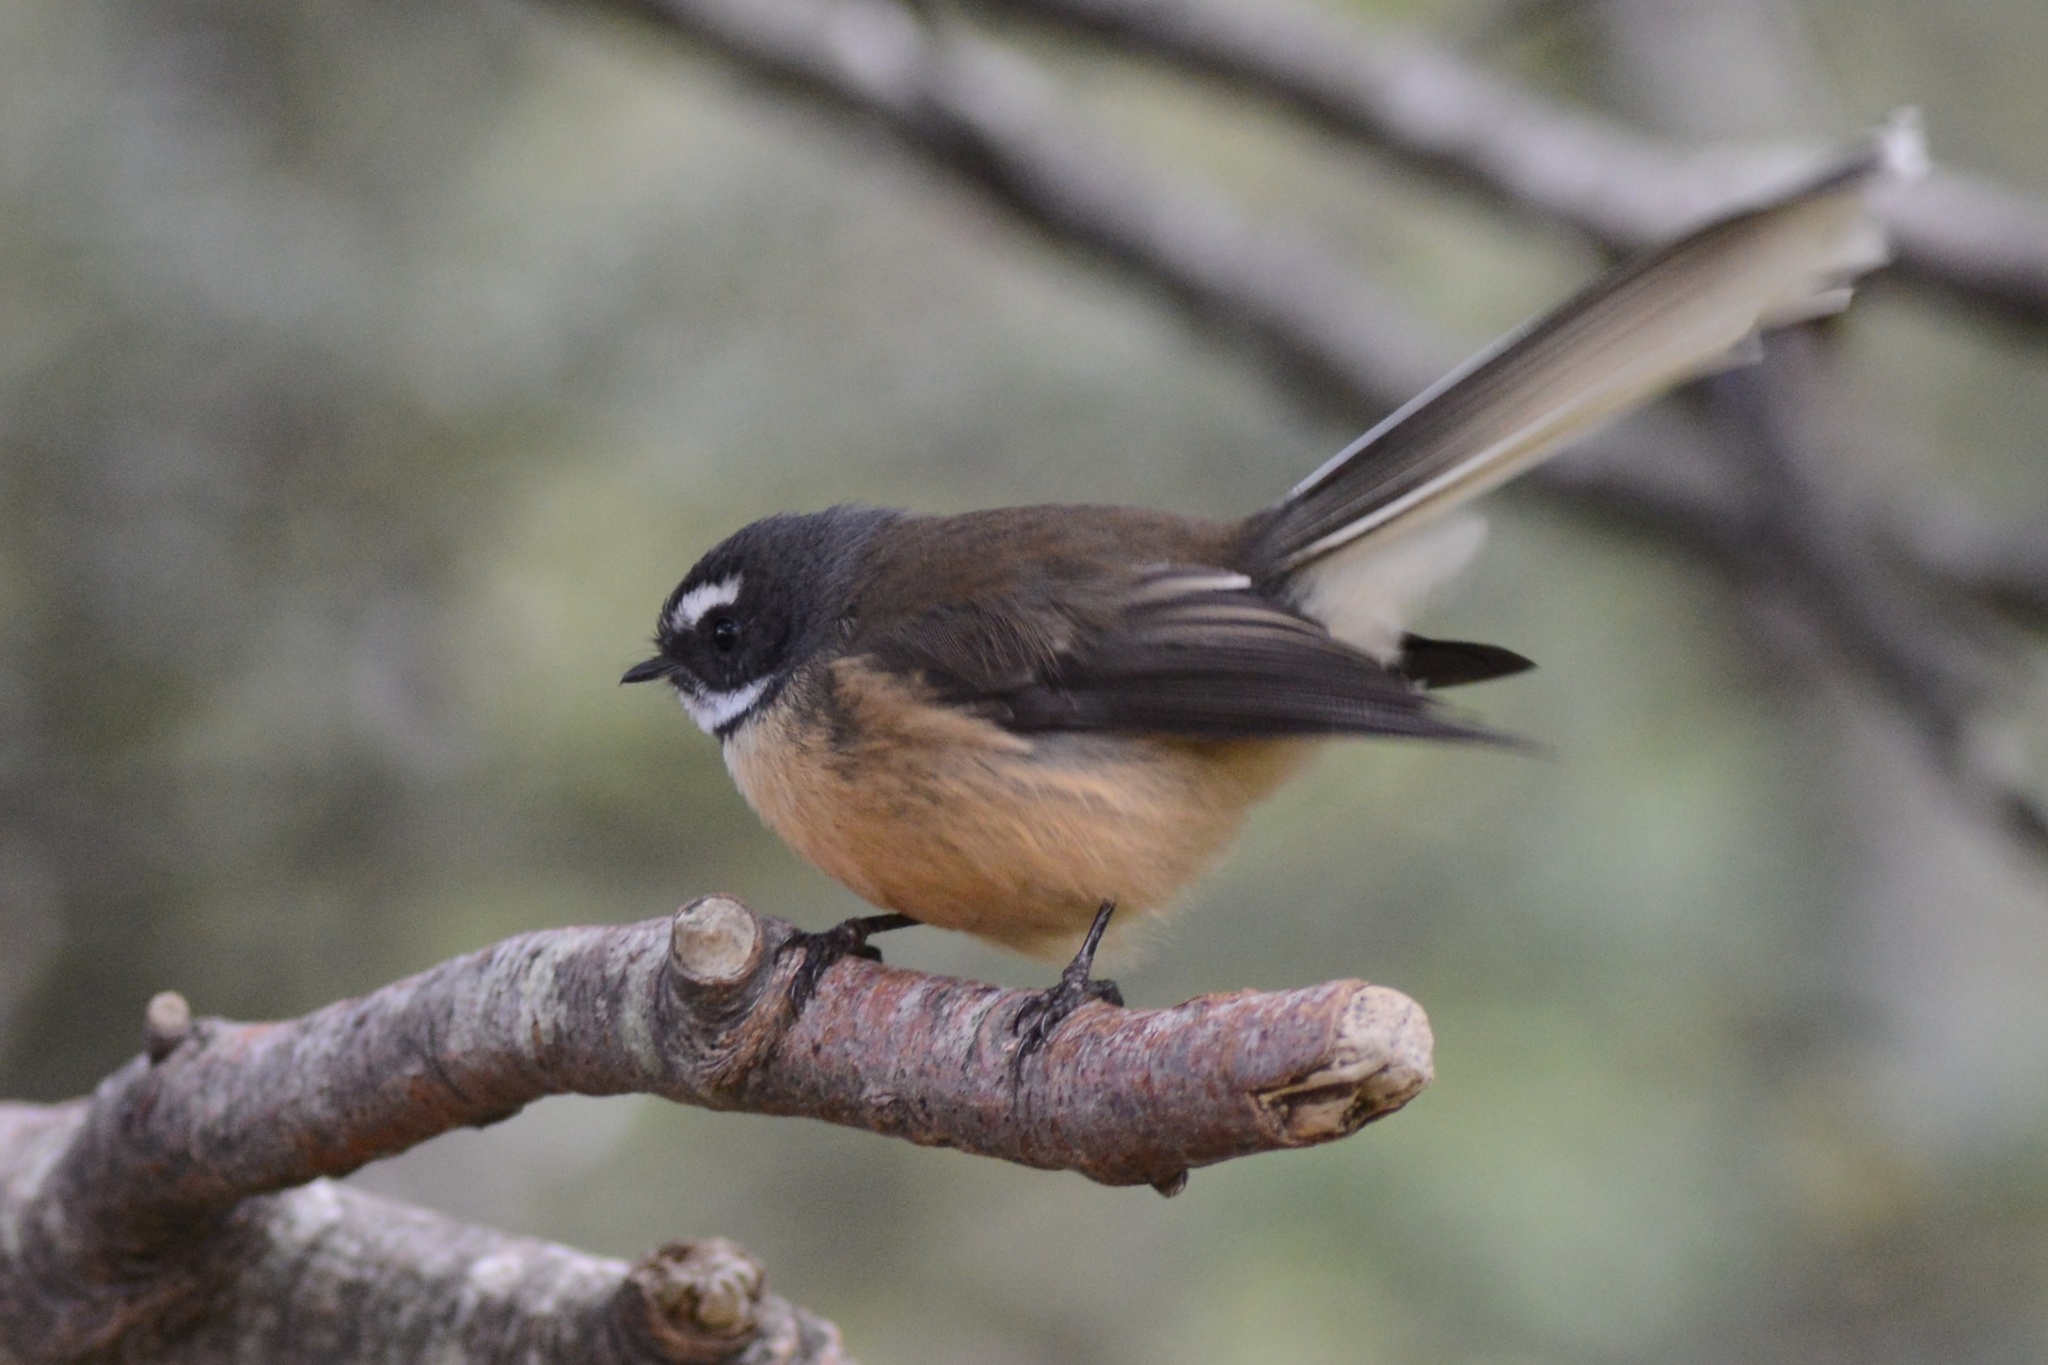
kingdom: Animalia
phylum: Chordata
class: Aves
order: Passeriformes
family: Rhipiduridae
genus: Rhipidura
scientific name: Rhipidura fuliginosa
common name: New zealand fantail
